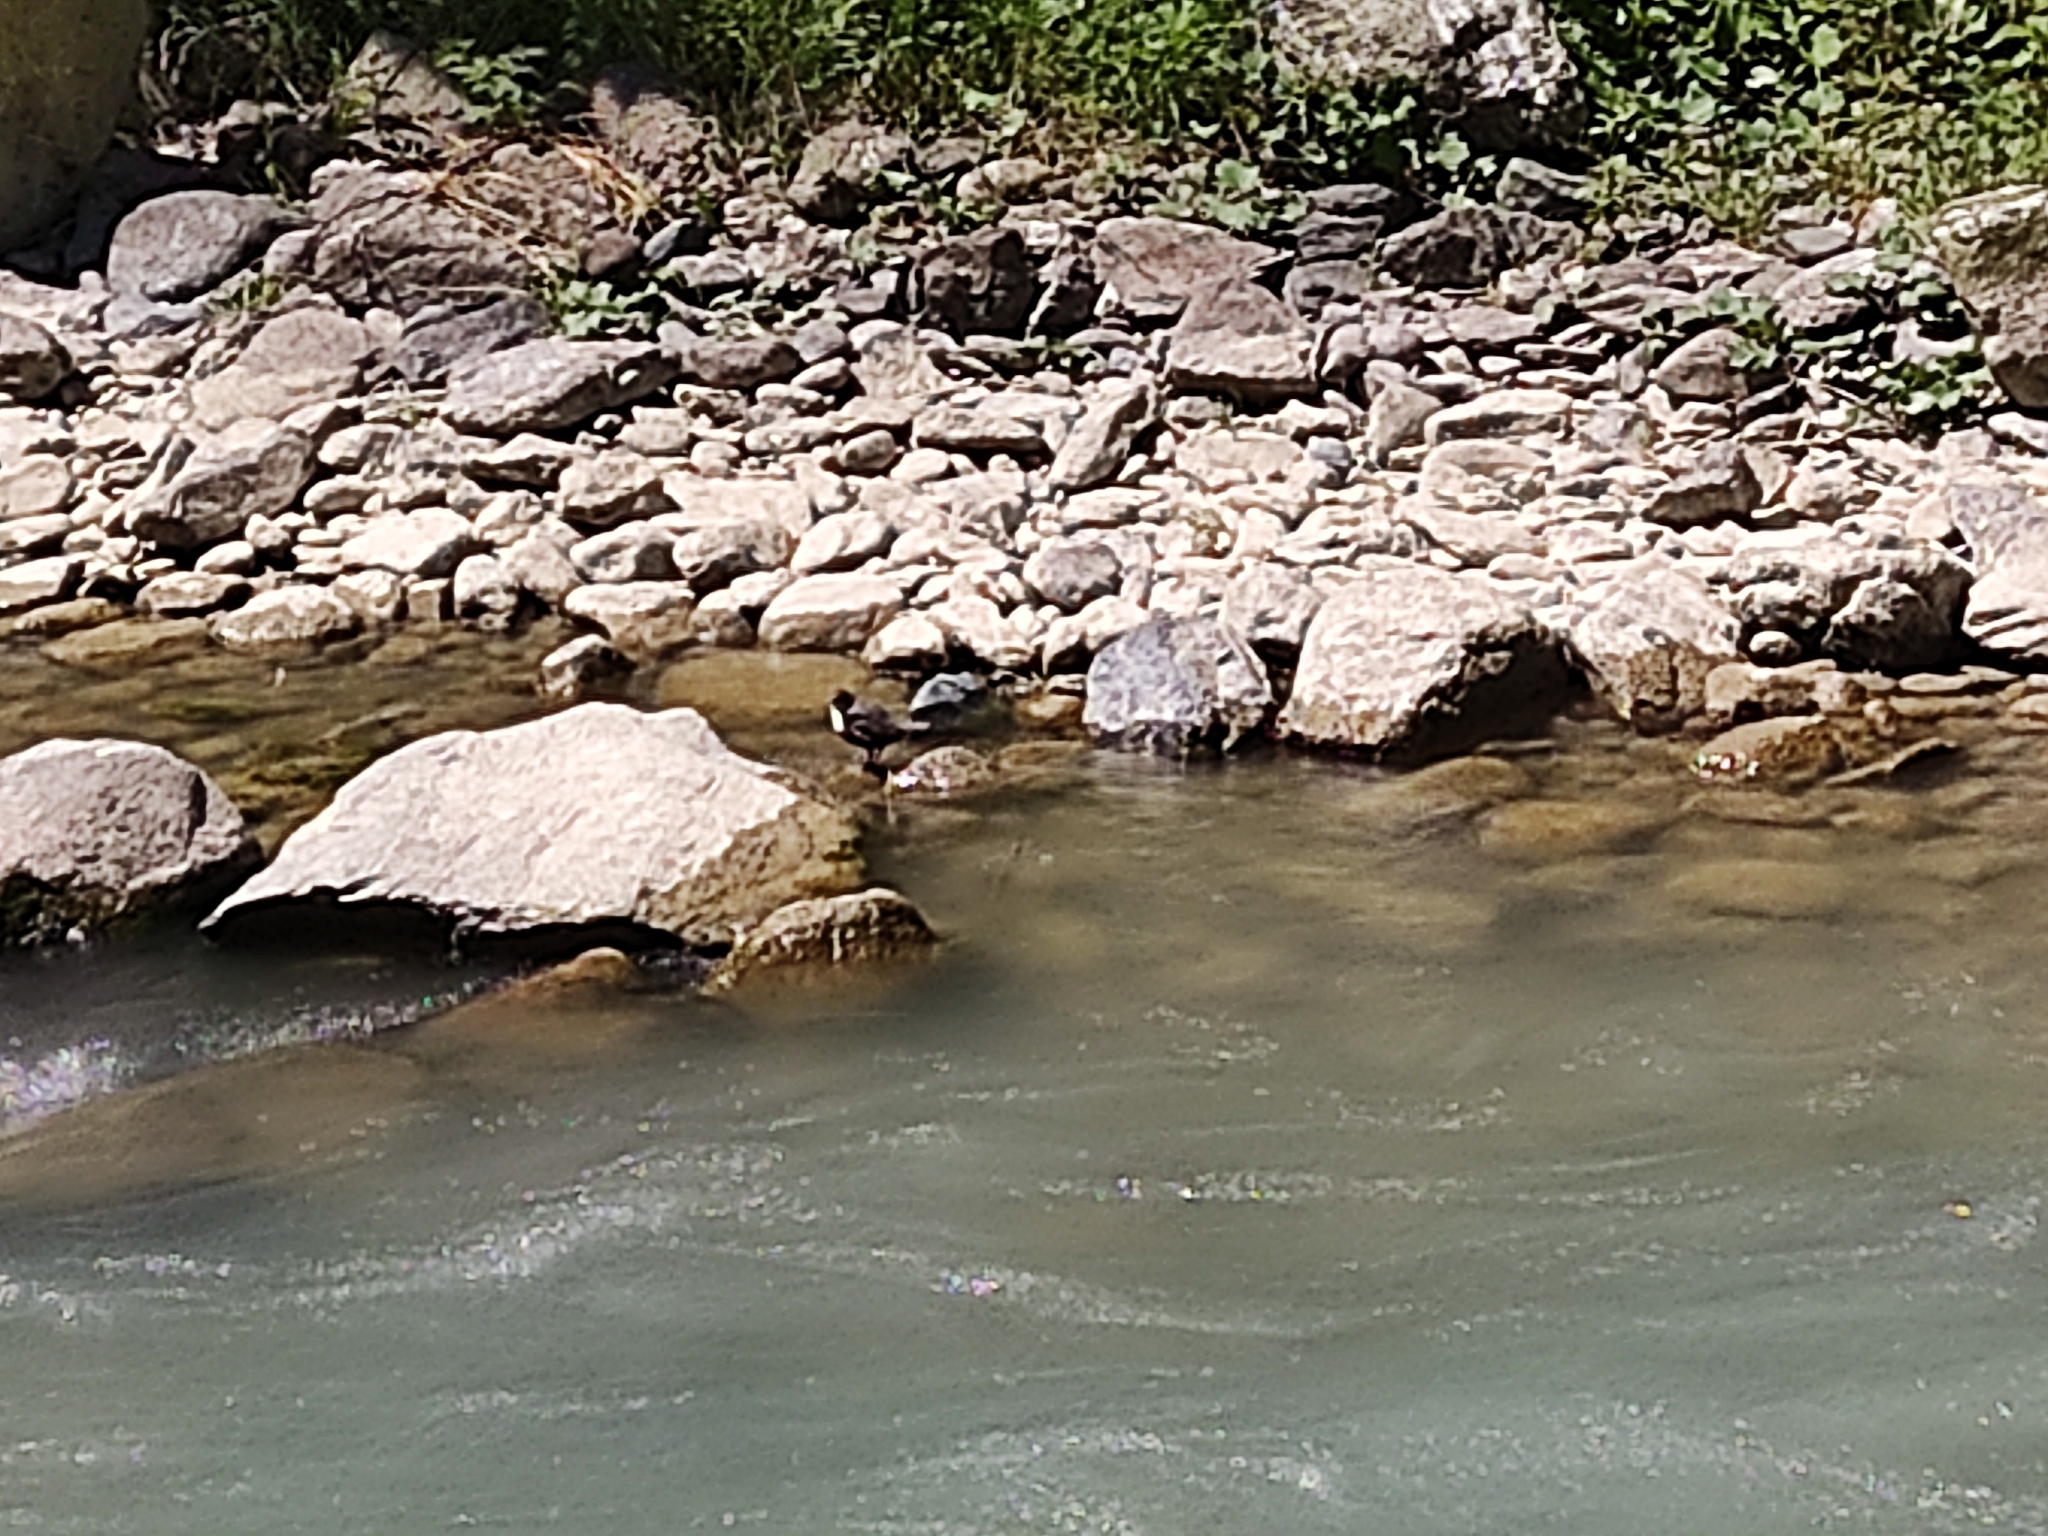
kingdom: Animalia
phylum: Chordata
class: Aves
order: Passeriformes
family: Cinclidae
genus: Cinclus
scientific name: Cinclus cinclus
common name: White-throated dipper
